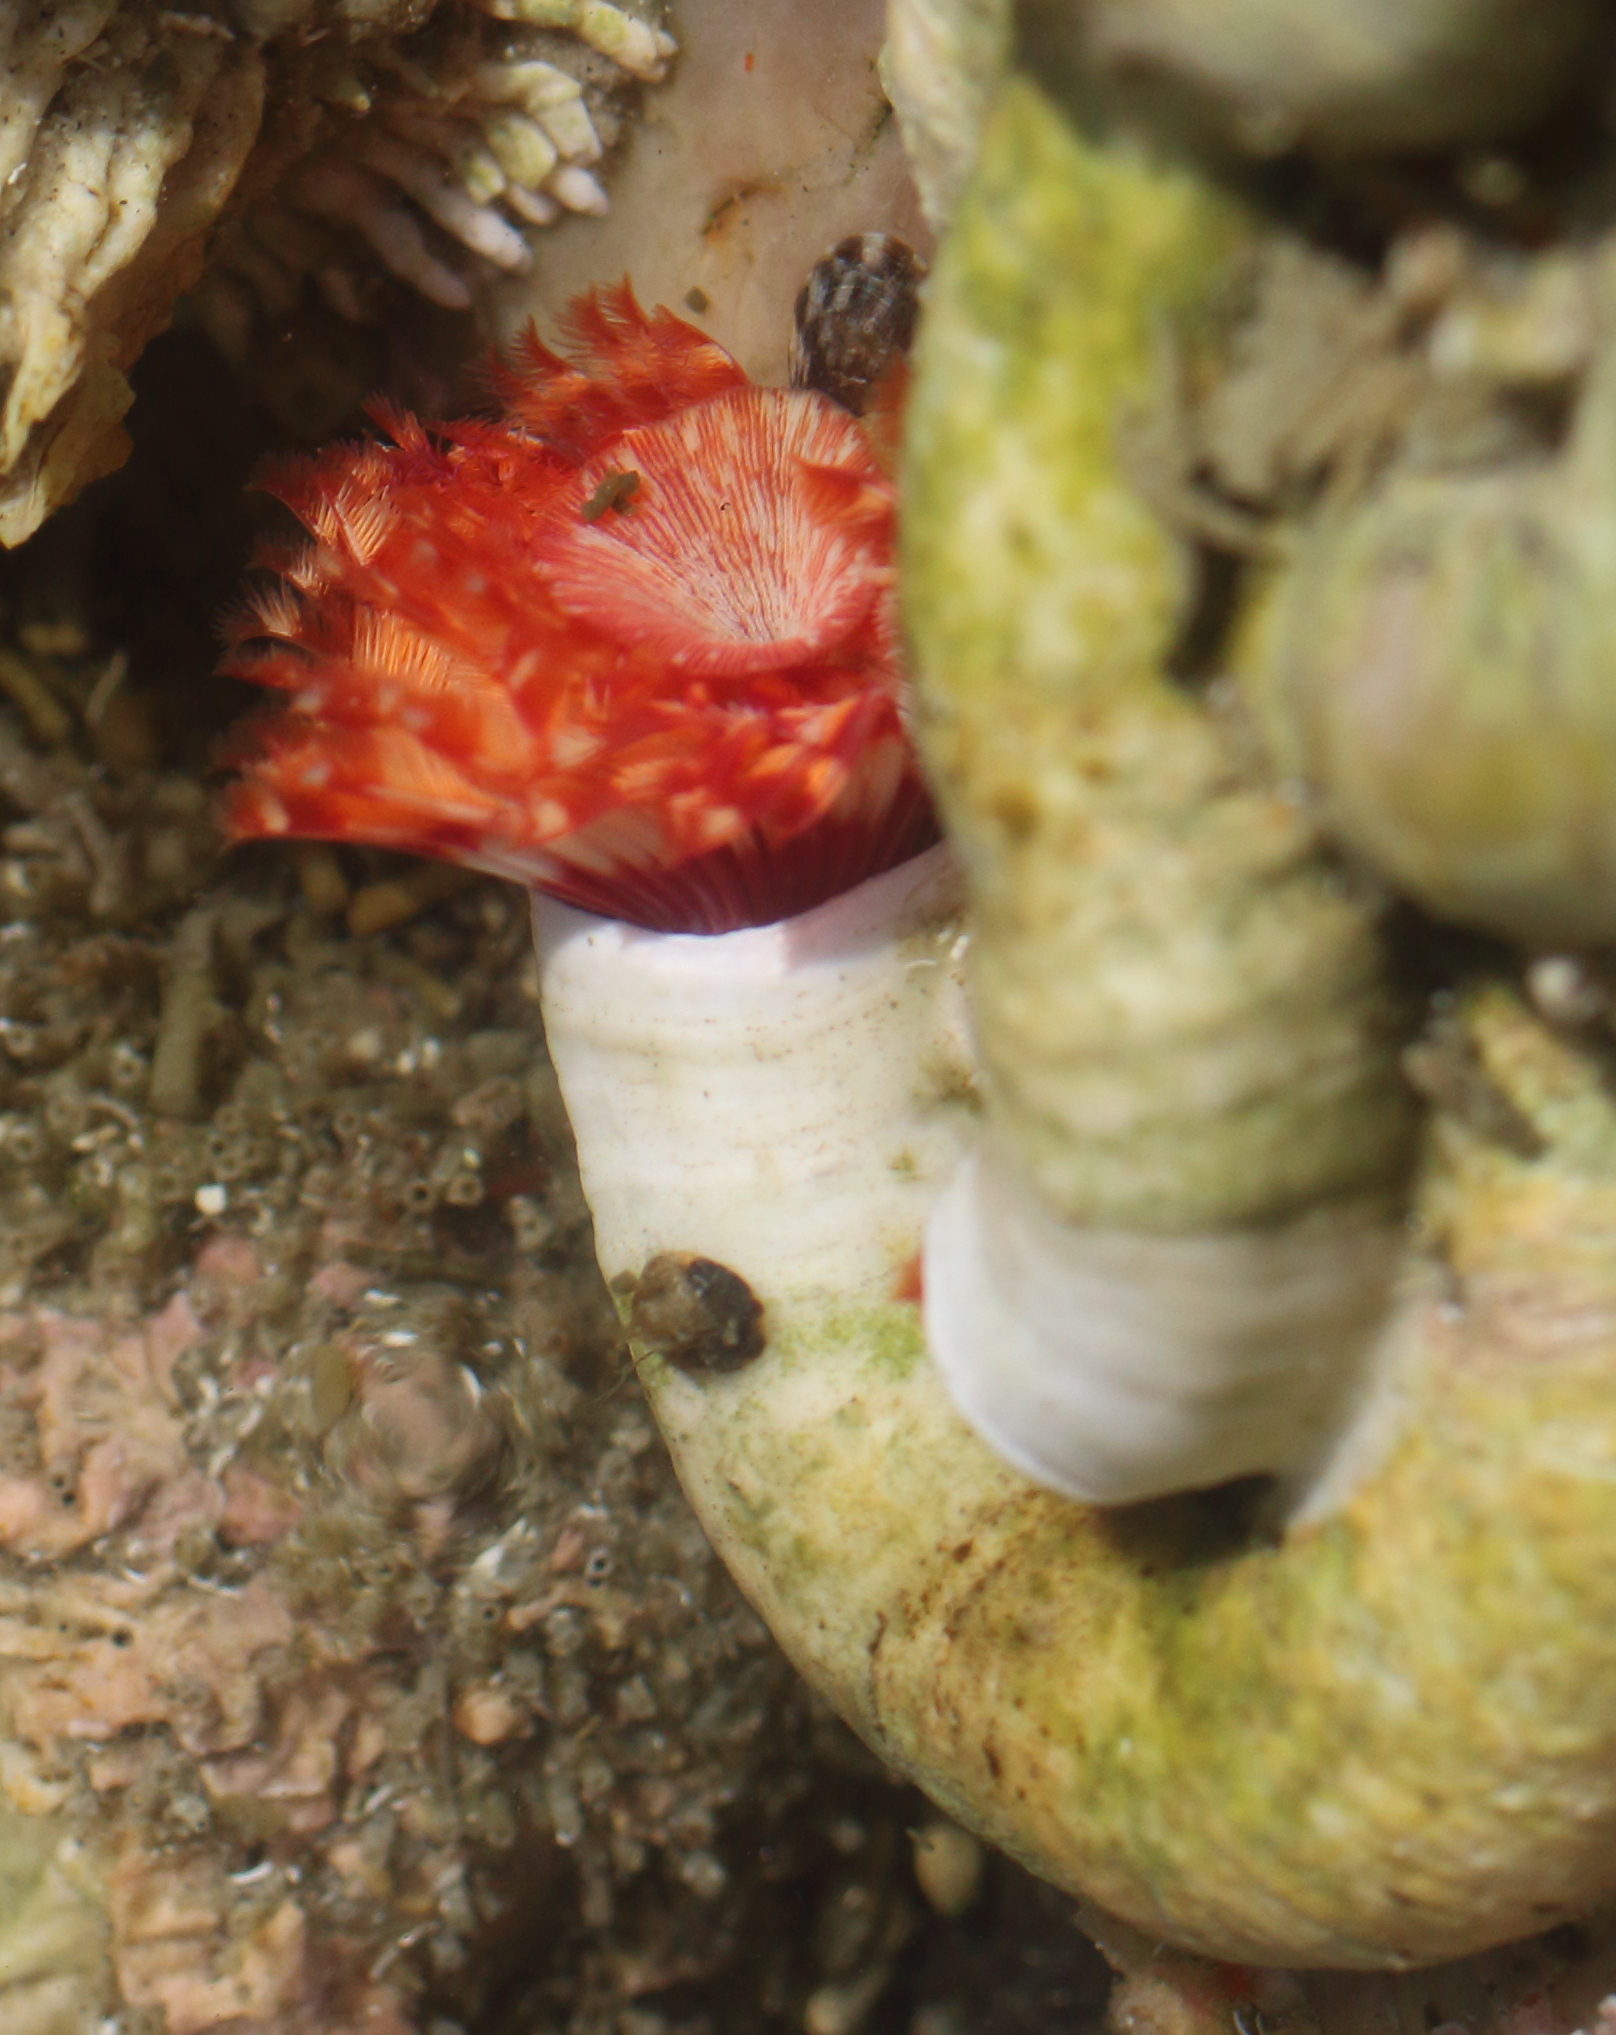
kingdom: Animalia
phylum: Annelida
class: Polychaeta
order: Sabellida
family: Serpulidae
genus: Serpula
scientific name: Serpula columbiana
